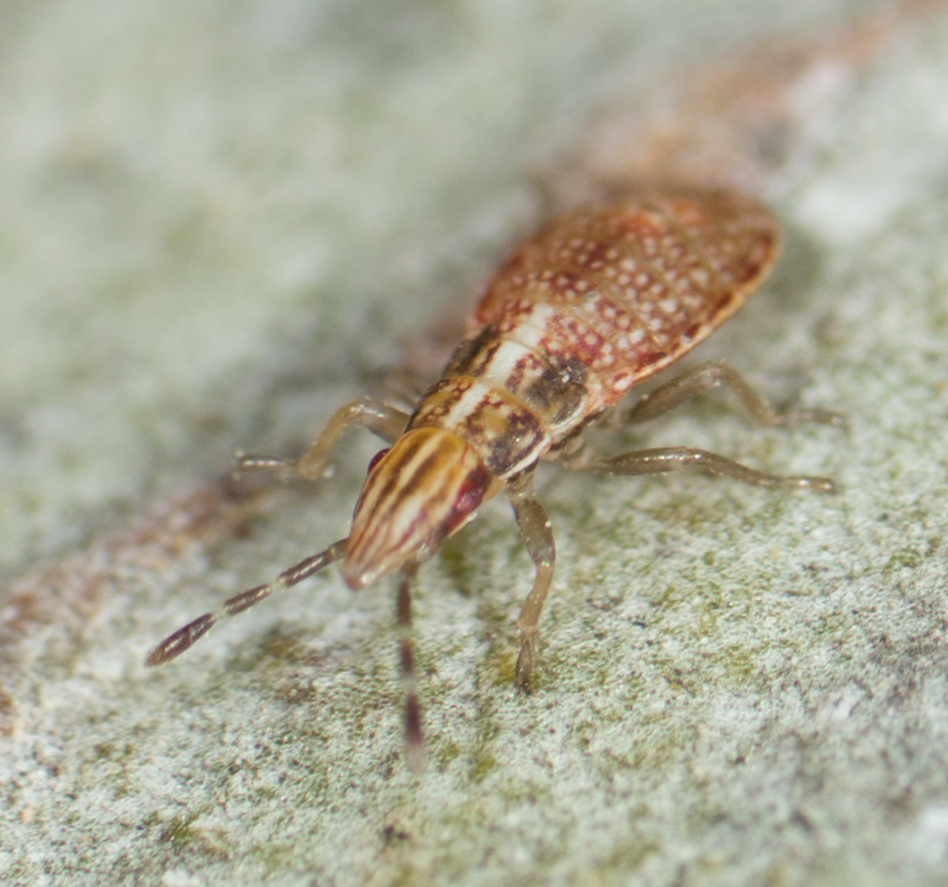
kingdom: Animalia
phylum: Arthropoda
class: Insecta
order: Hemiptera
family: Lygaeidae
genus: Belonochilus
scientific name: Belonochilus numenius
